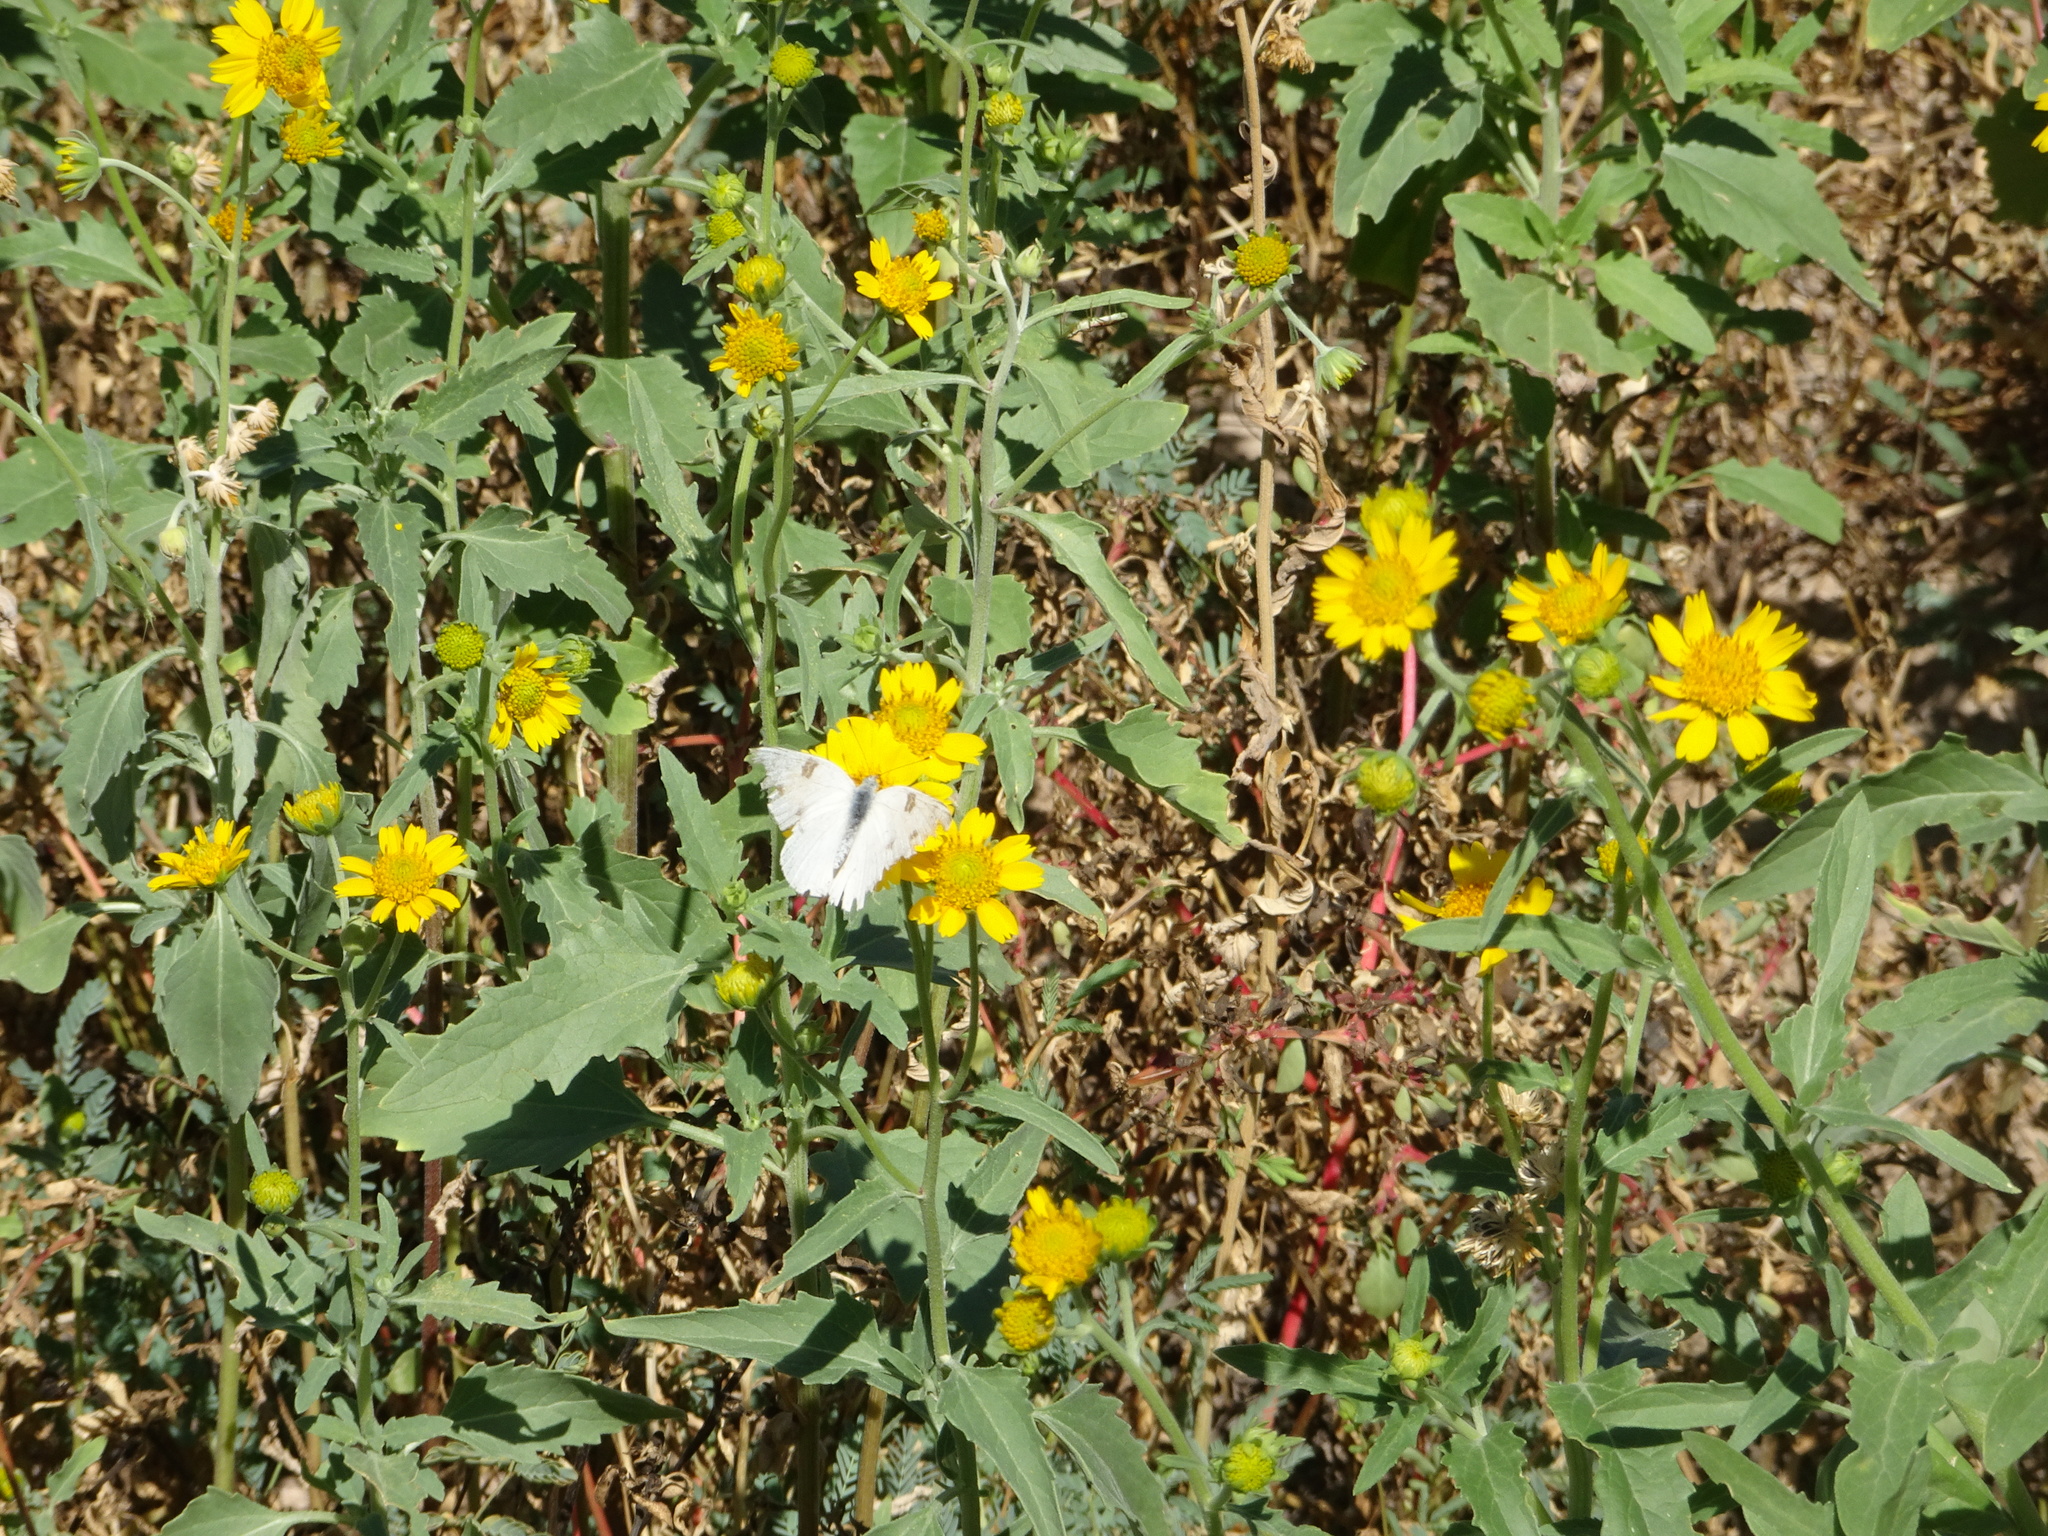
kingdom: Animalia
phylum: Arthropoda
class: Insecta
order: Lepidoptera
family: Pieridae
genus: Pontia
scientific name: Pontia protodice
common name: Checkered white
